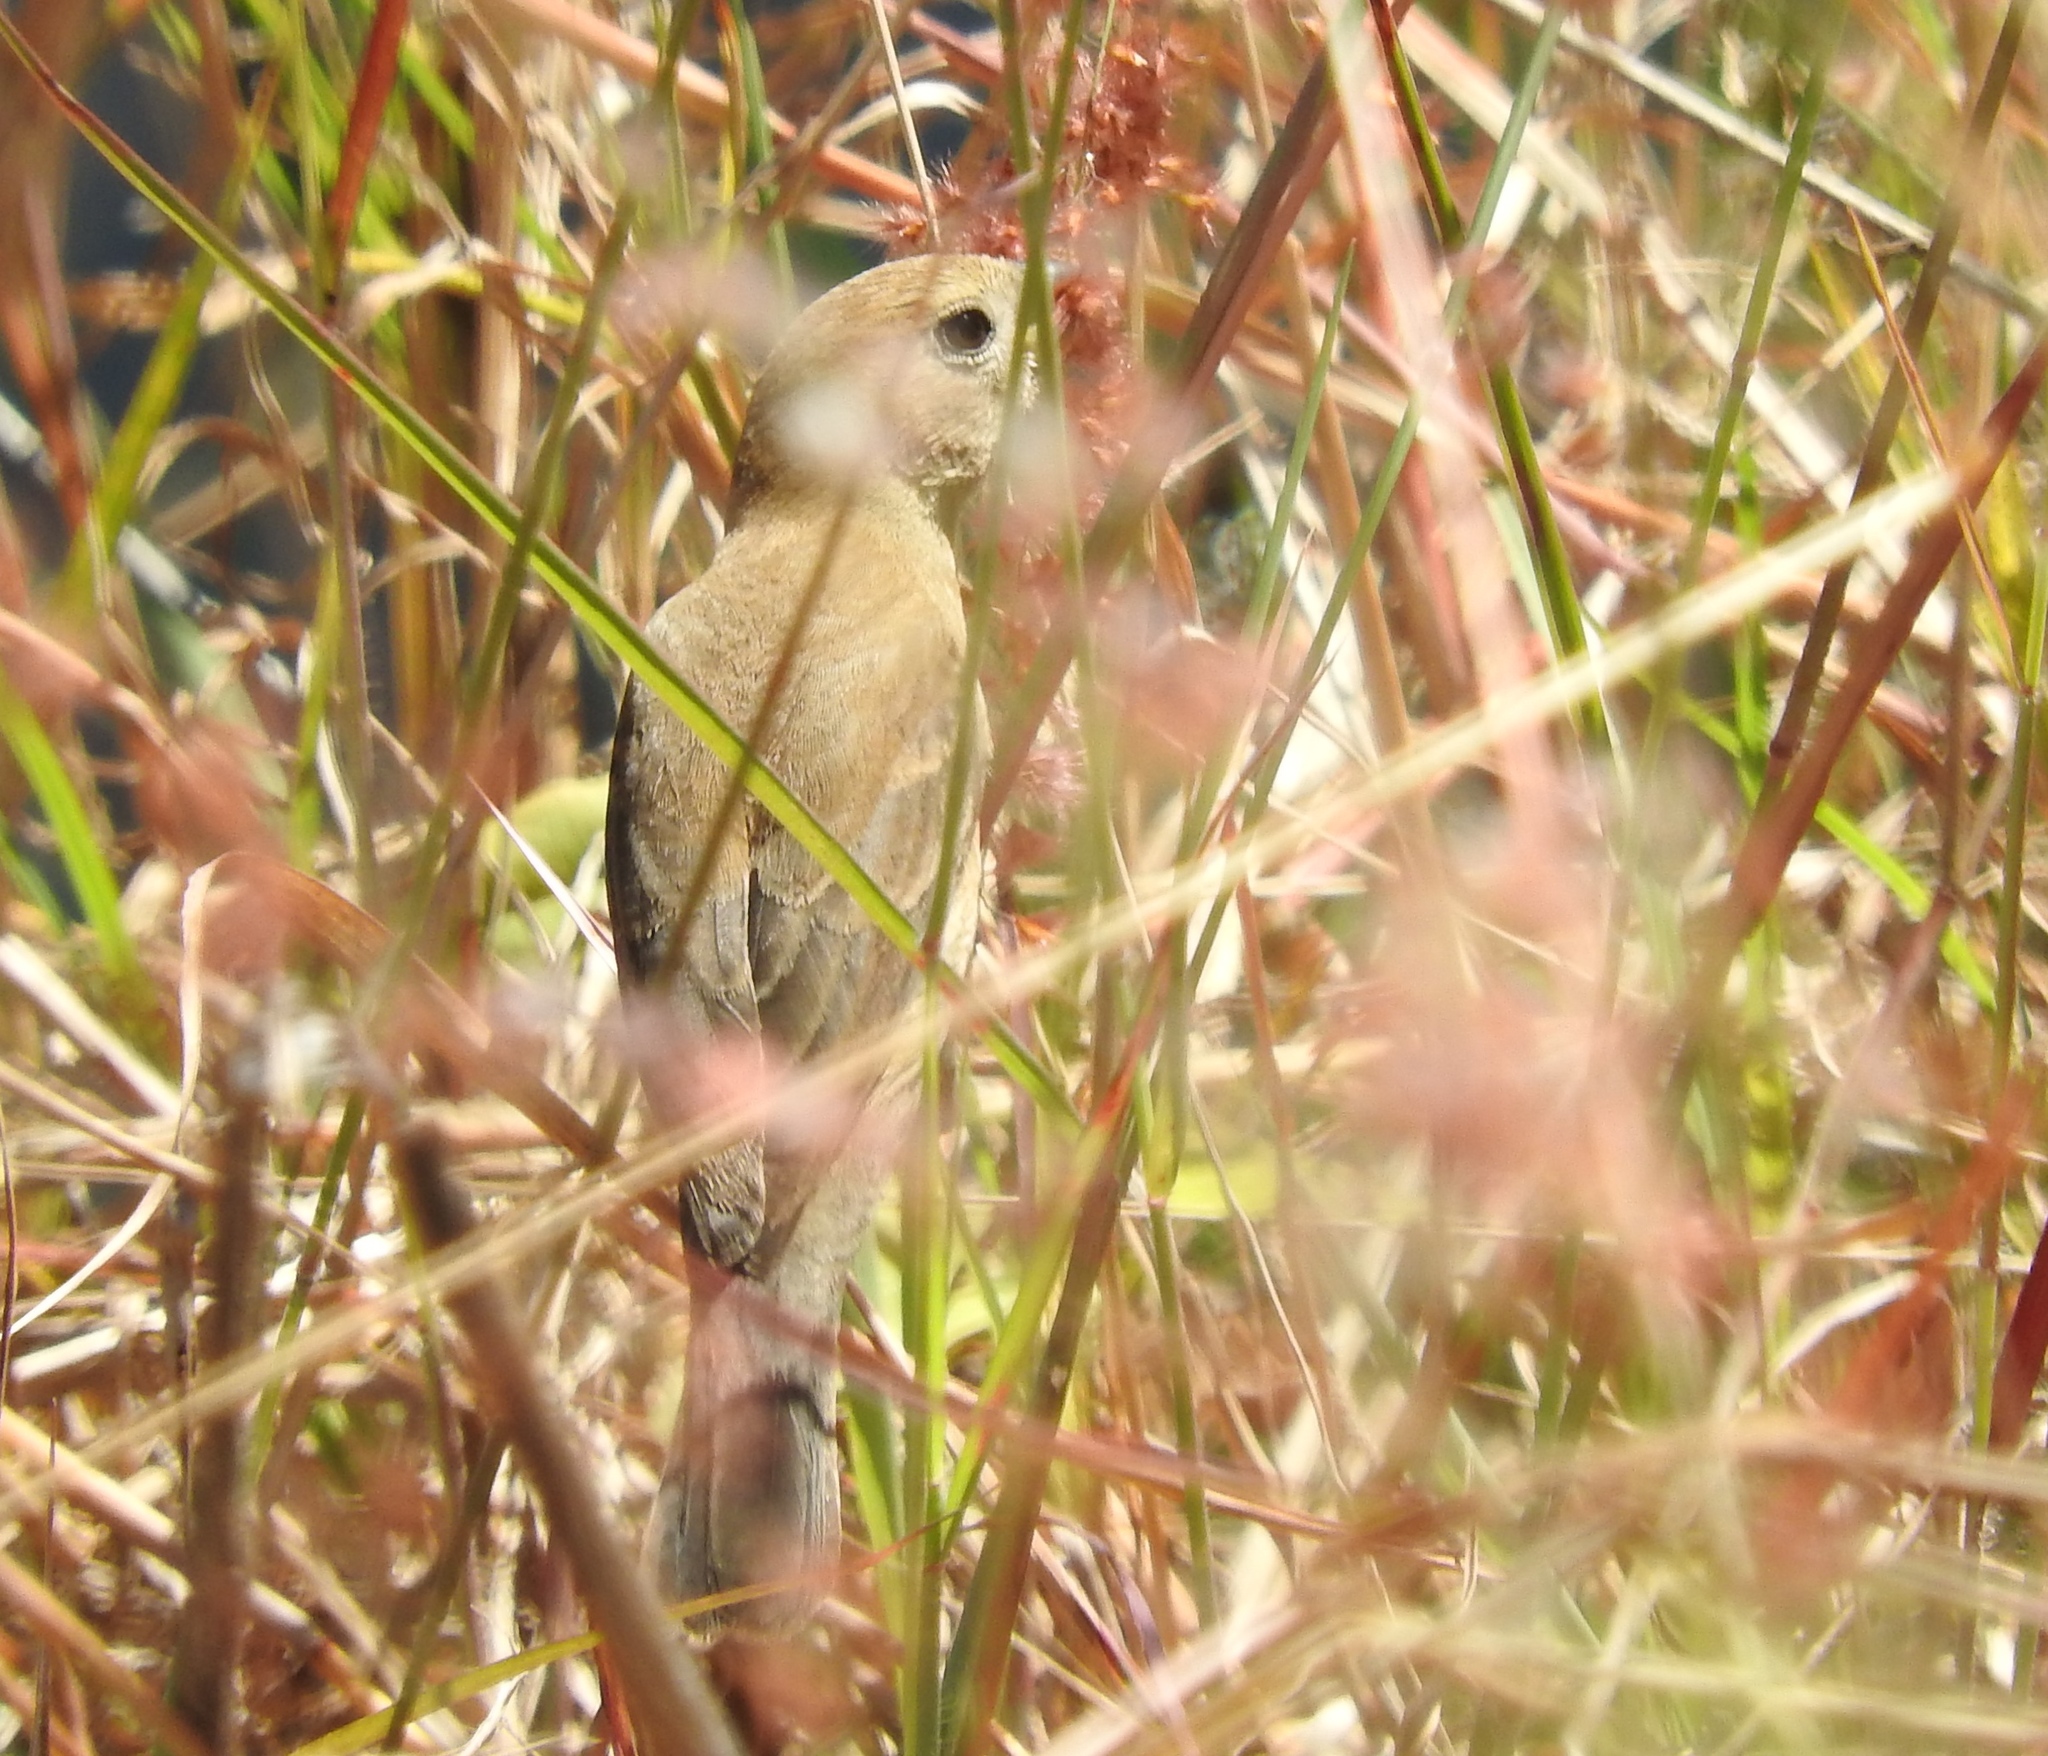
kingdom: Animalia
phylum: Chordata
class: Aves
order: Passeriformes
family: Thraupidae
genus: Sporophila
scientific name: Sporophila torqueola
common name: White-collared seedeater
